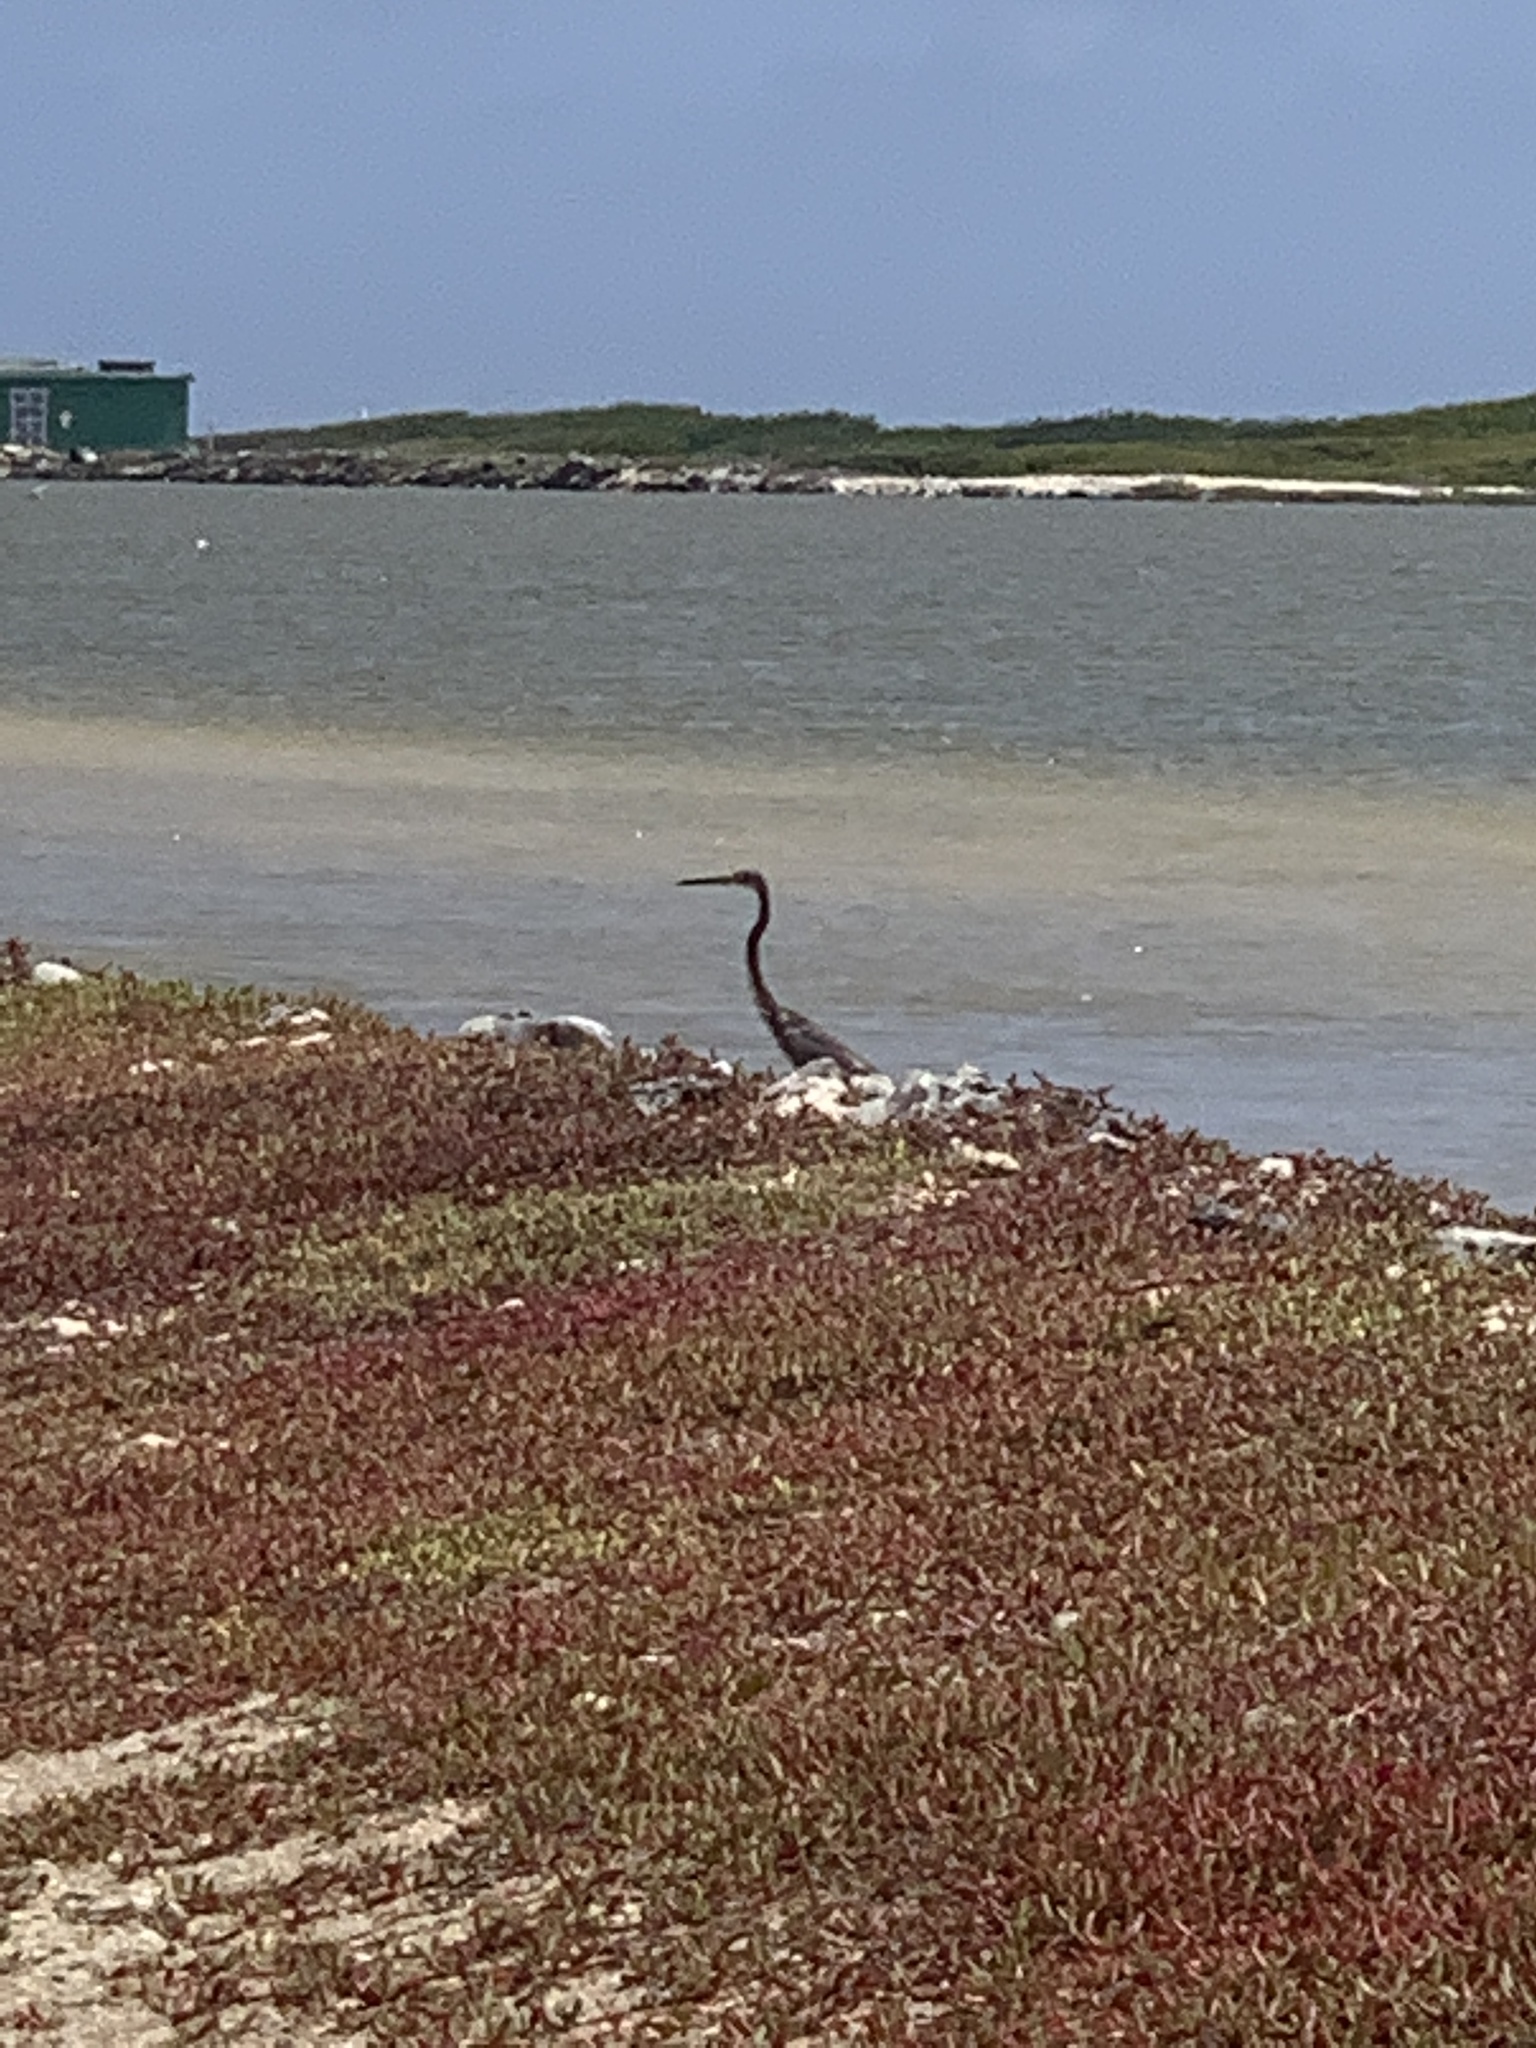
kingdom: Animalia
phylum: Chordata
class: Aves
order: Pelecaniformes
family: Ardeidae
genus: Egretta
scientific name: Egretta tricolor
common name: Tricolored heron
